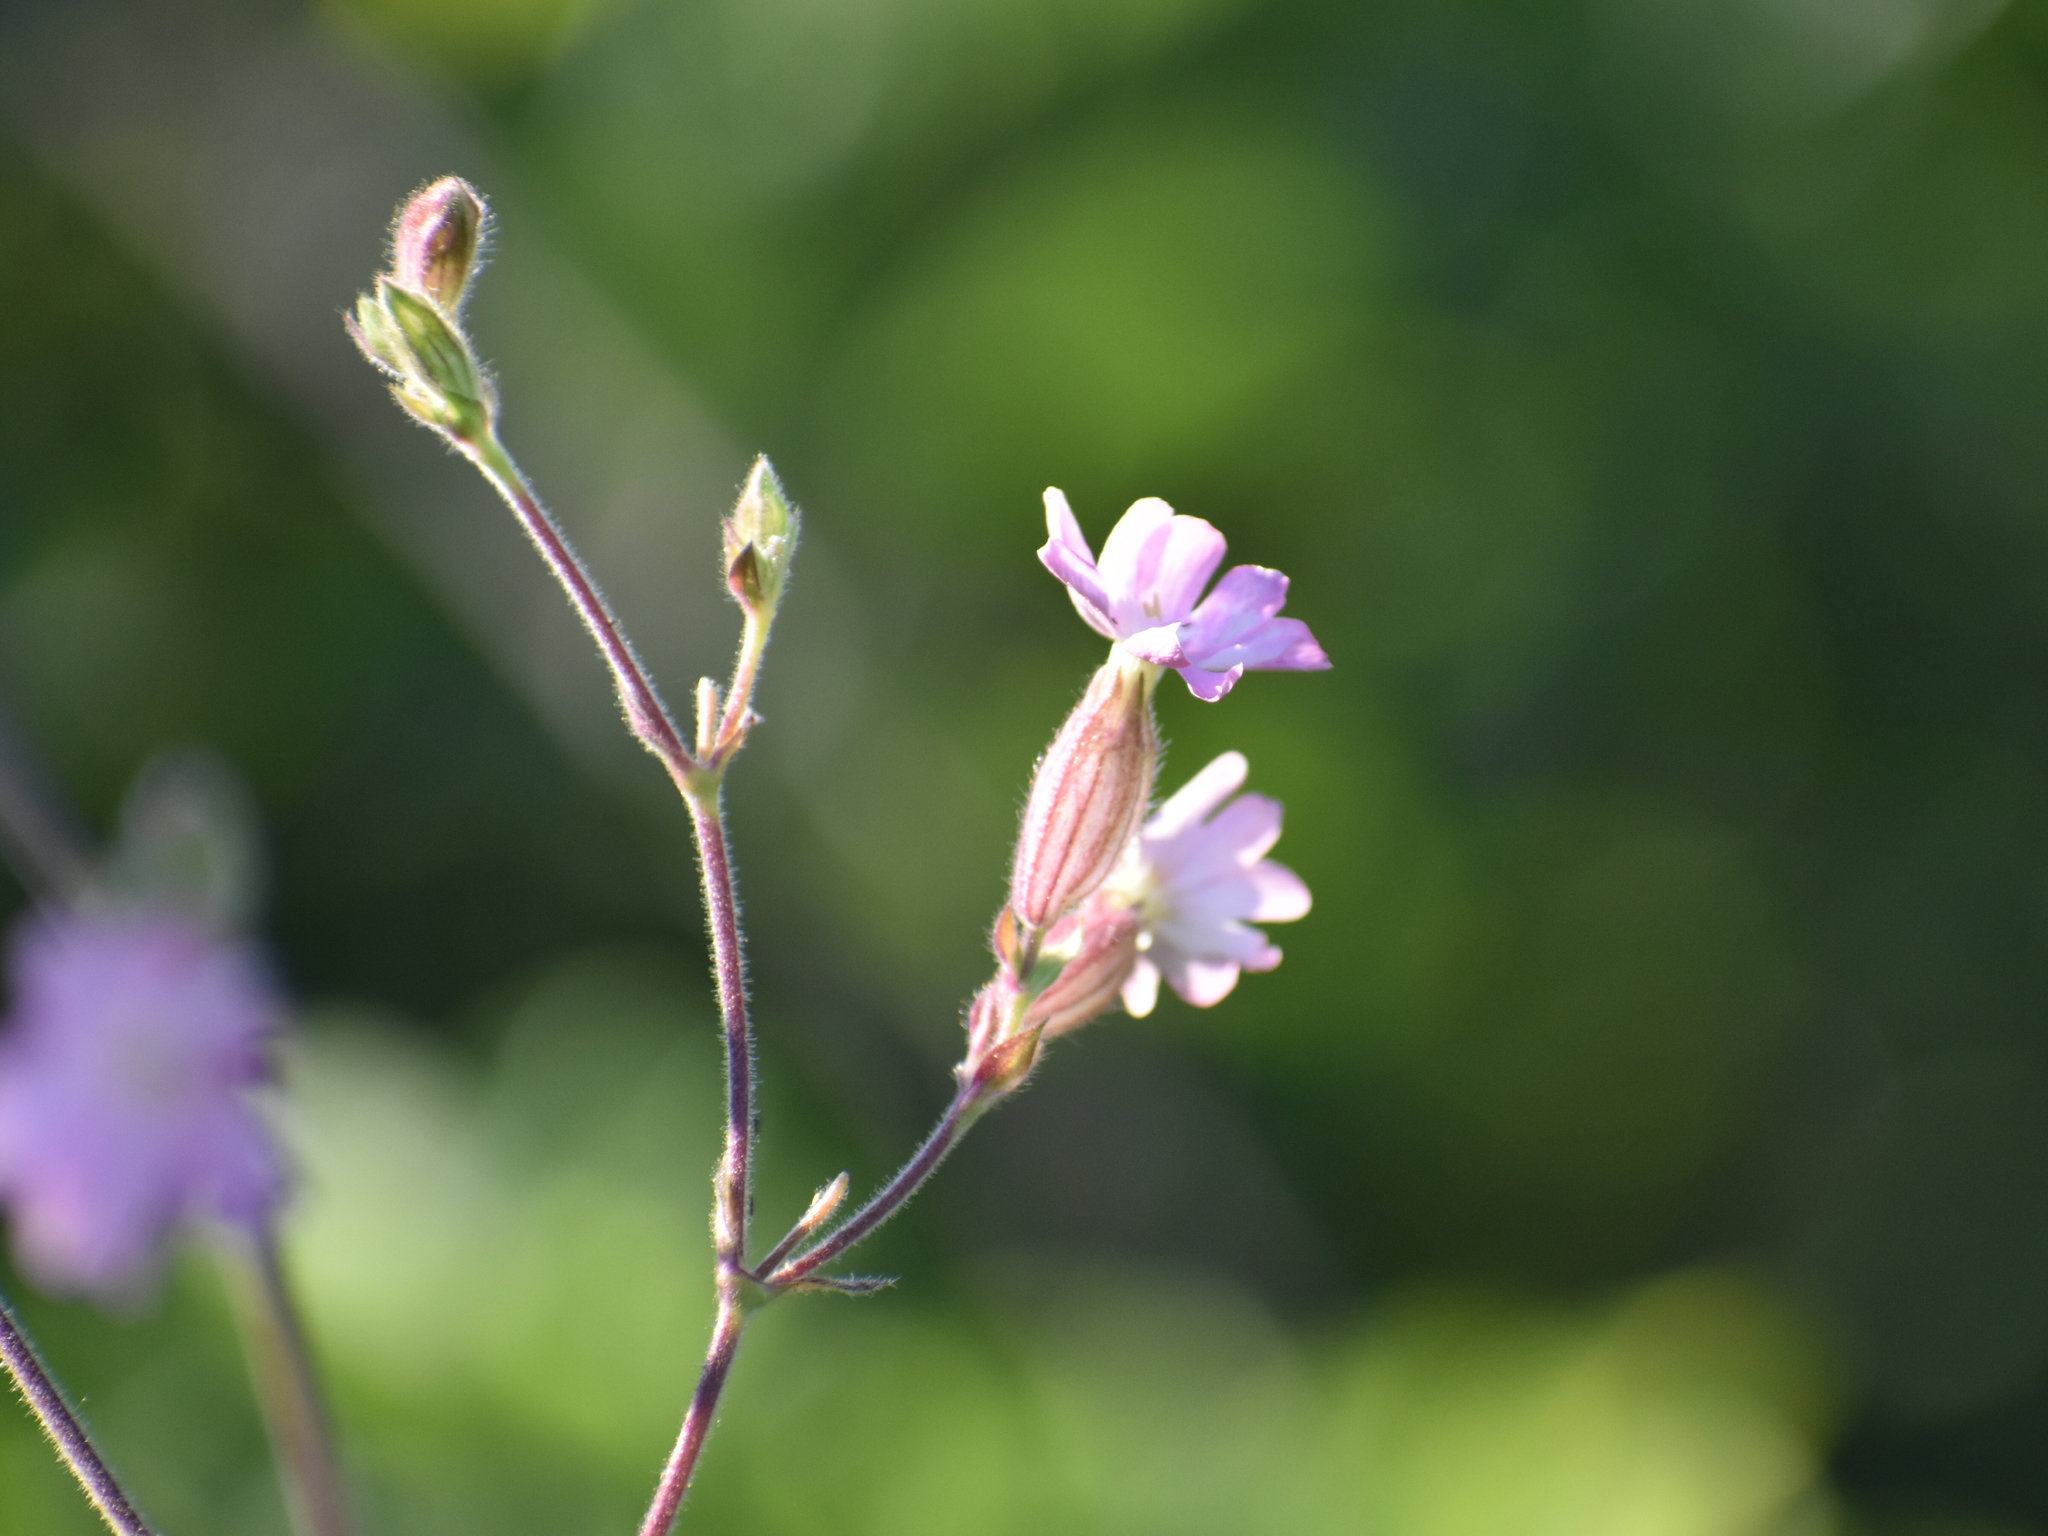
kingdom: Plantae
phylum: Tracheophyta
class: Magnoliopsida
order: Caryophyllales
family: Caryophyllaceae
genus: Silene
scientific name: Silene dioica
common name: Red campion
